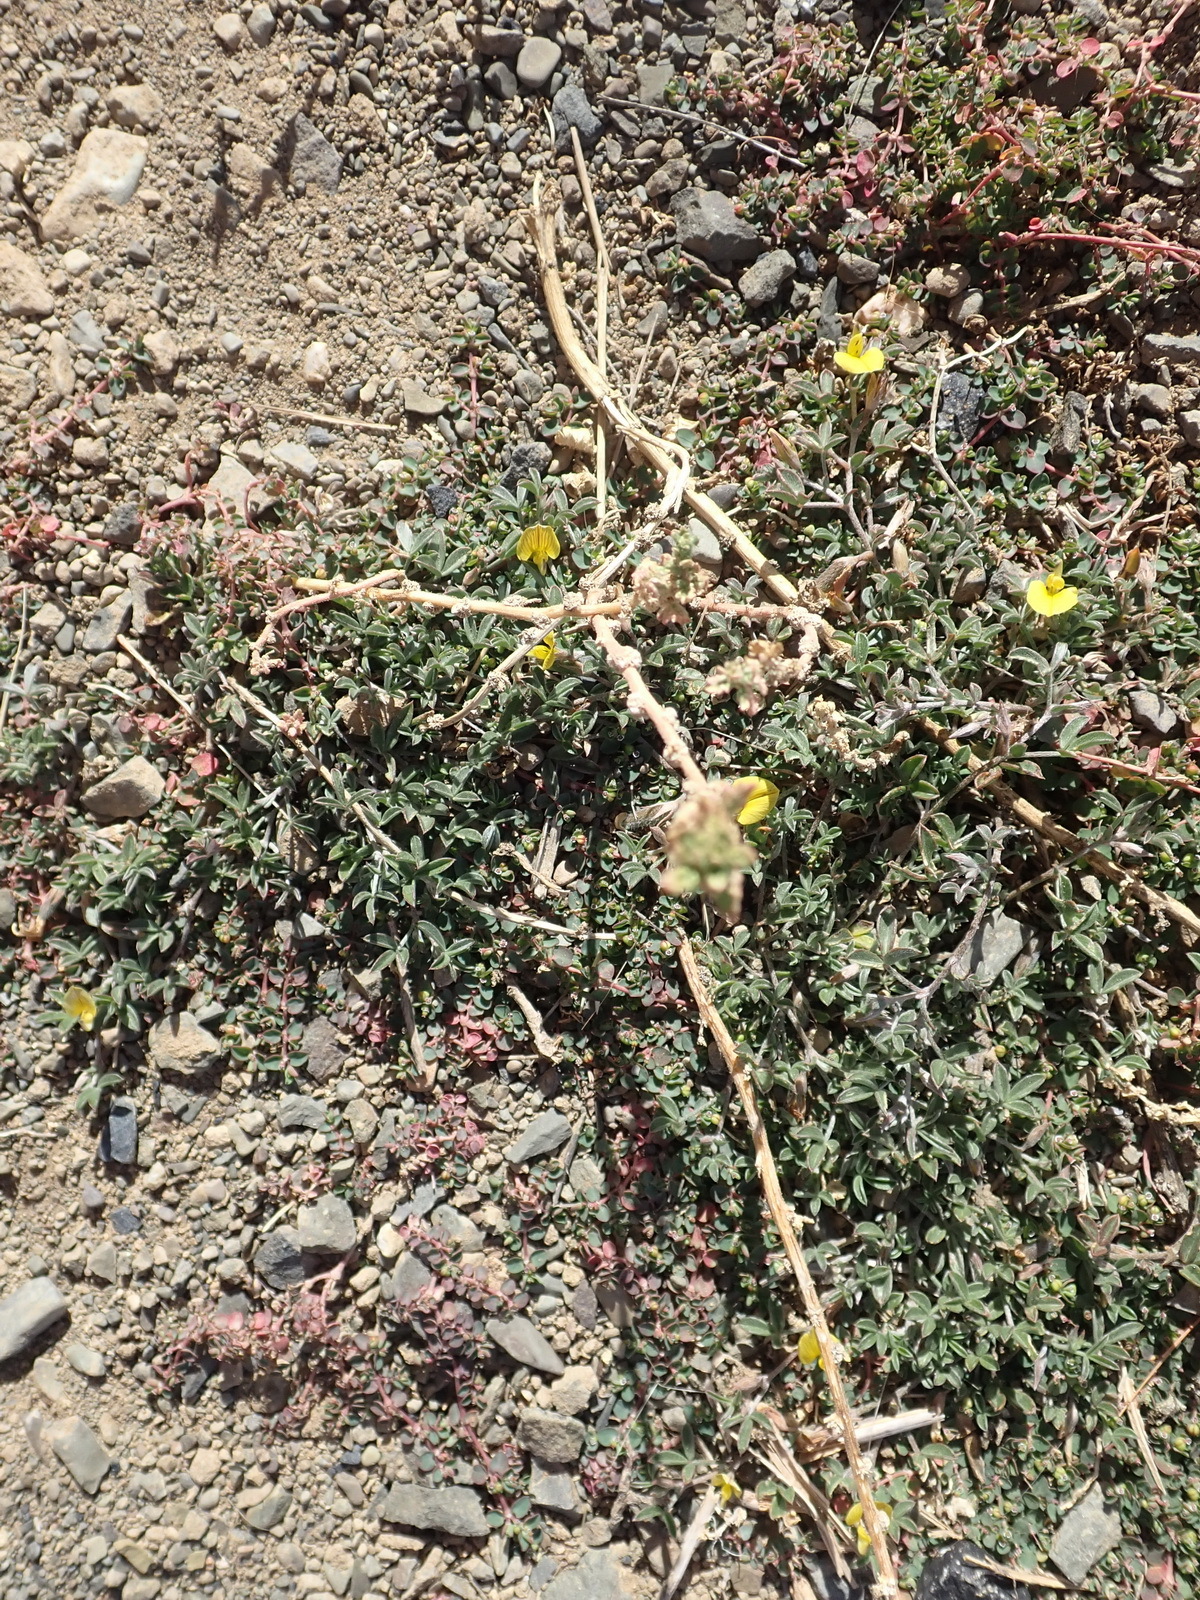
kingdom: Plantae
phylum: Tracheophyta
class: Magnoliopsida
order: Fabales
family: Fabaceae
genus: Lotononis
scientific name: Lotononis tenella
